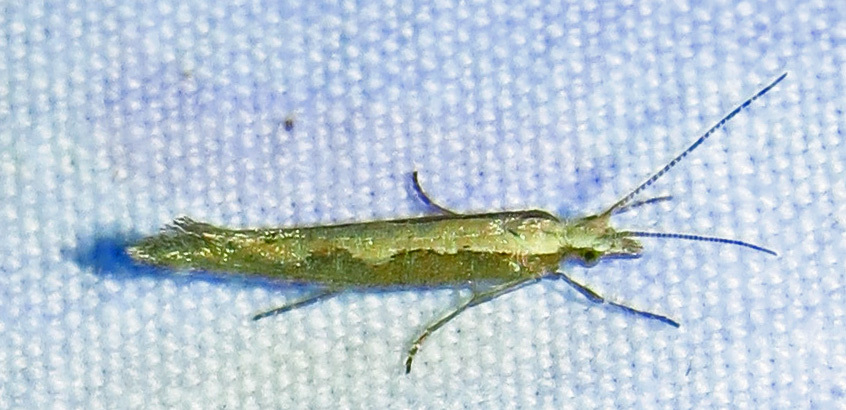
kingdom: Animalia
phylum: Arthropoda
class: Insecta
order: Lepidoptera
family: Plutellidae
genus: Plutella
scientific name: Plutella xylostella
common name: Diamond-back moth
